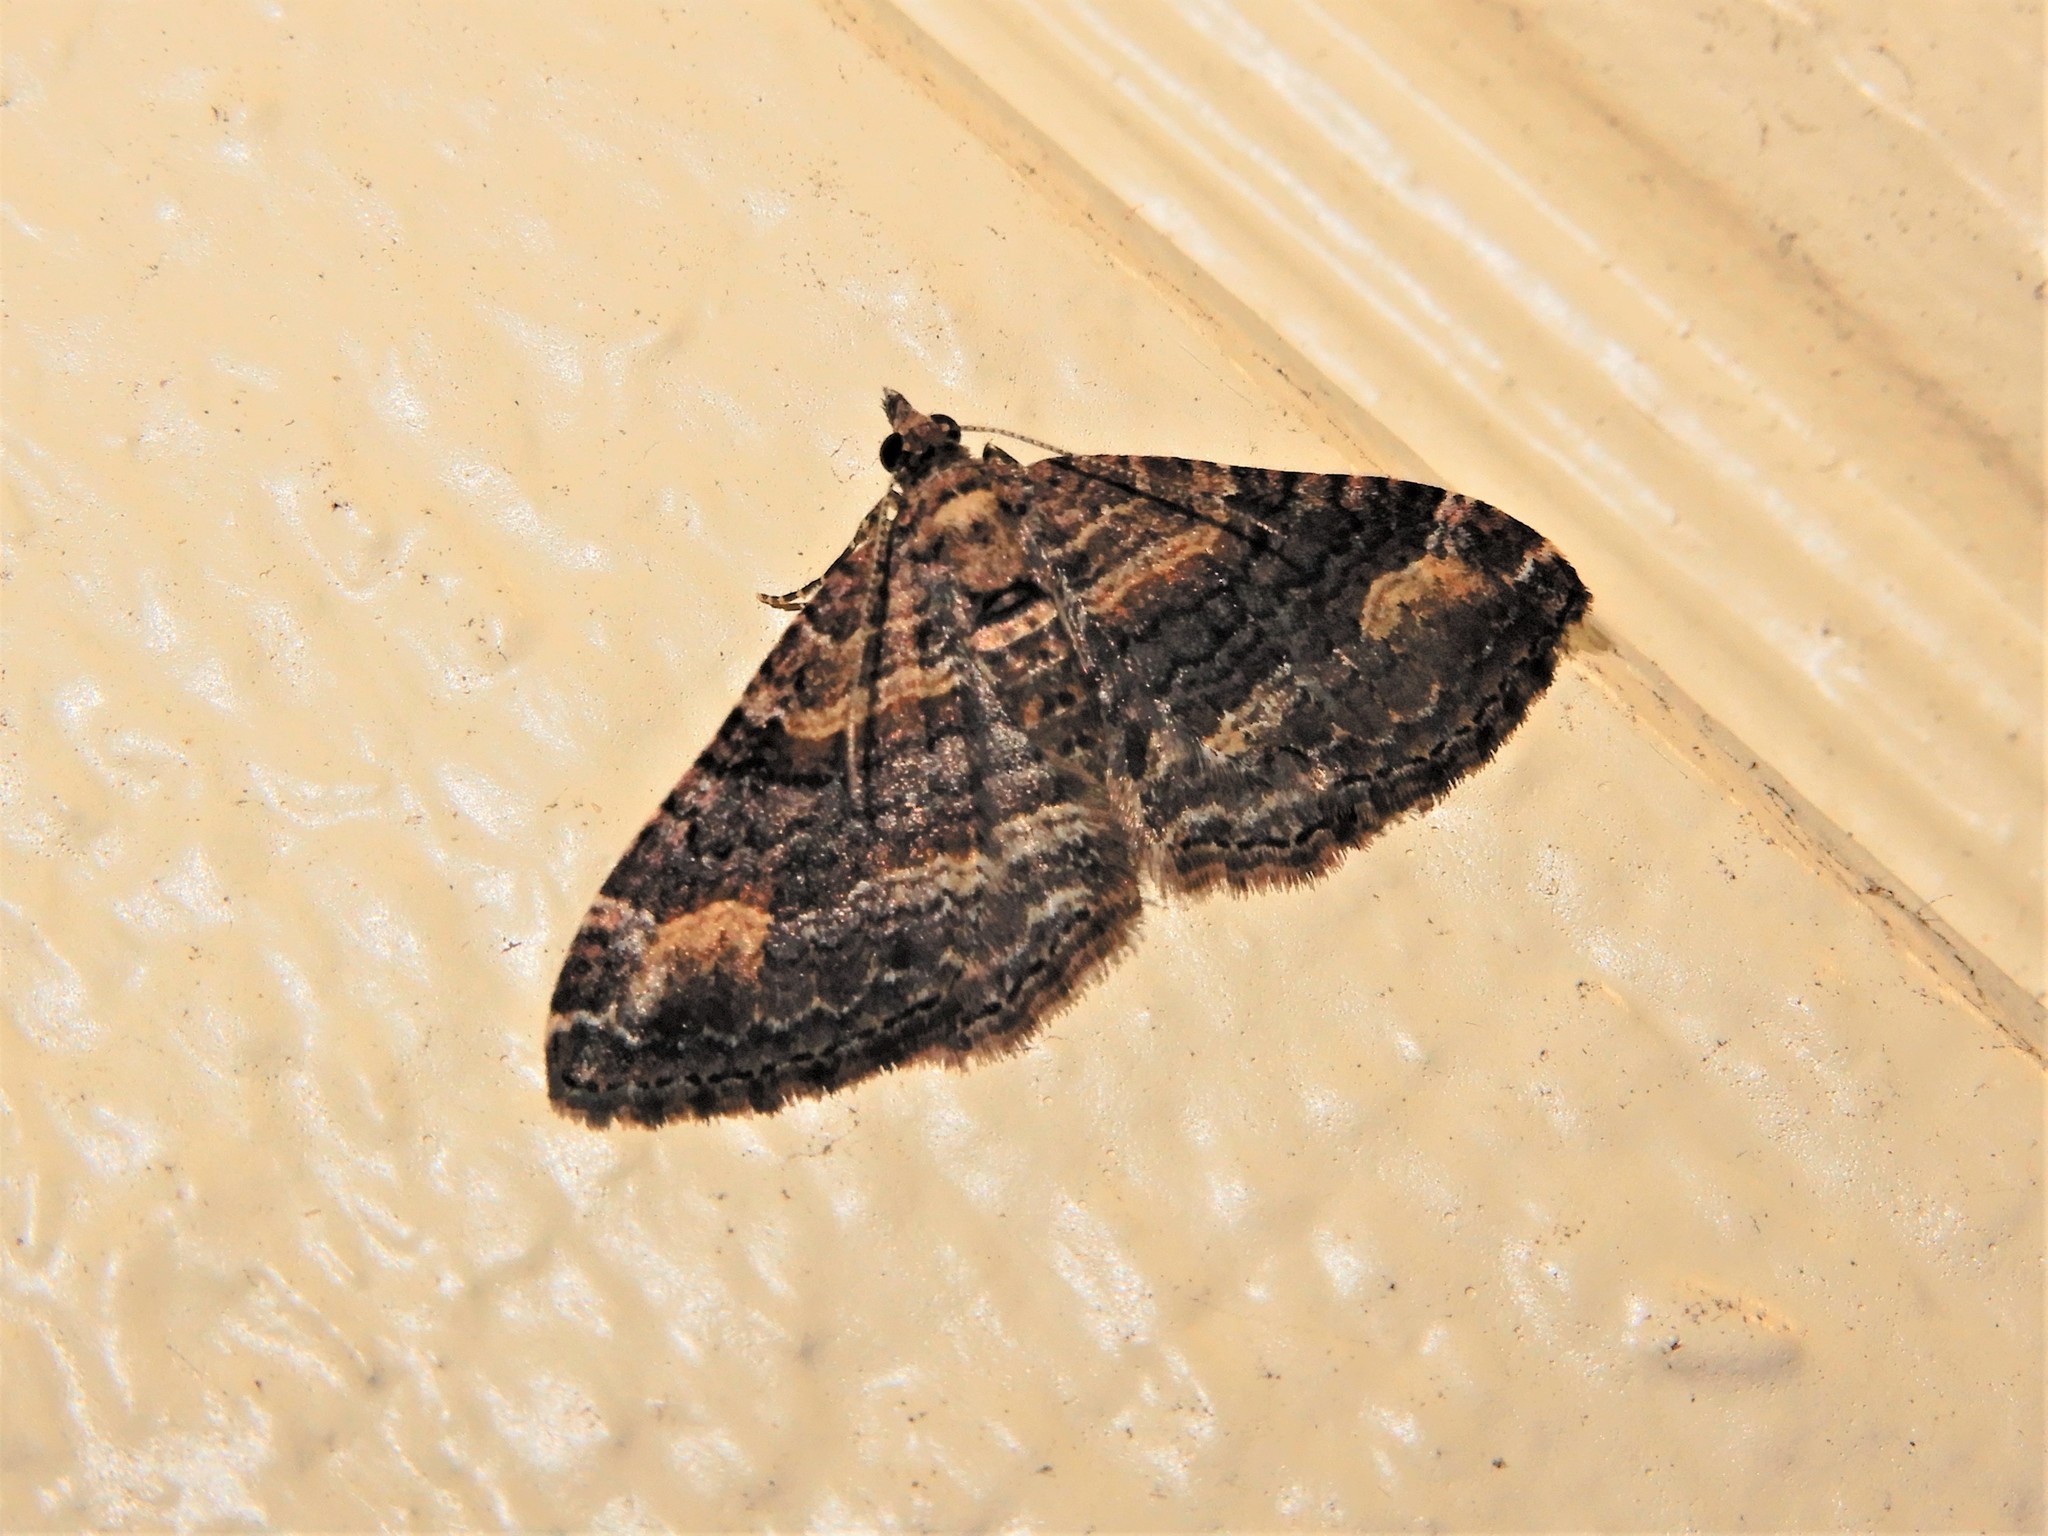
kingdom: Animalia
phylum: Arthropoda
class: Insecta
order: Lepidoptera
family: Geometridae
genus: Epyaxa
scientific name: Epyaxa lucidata
